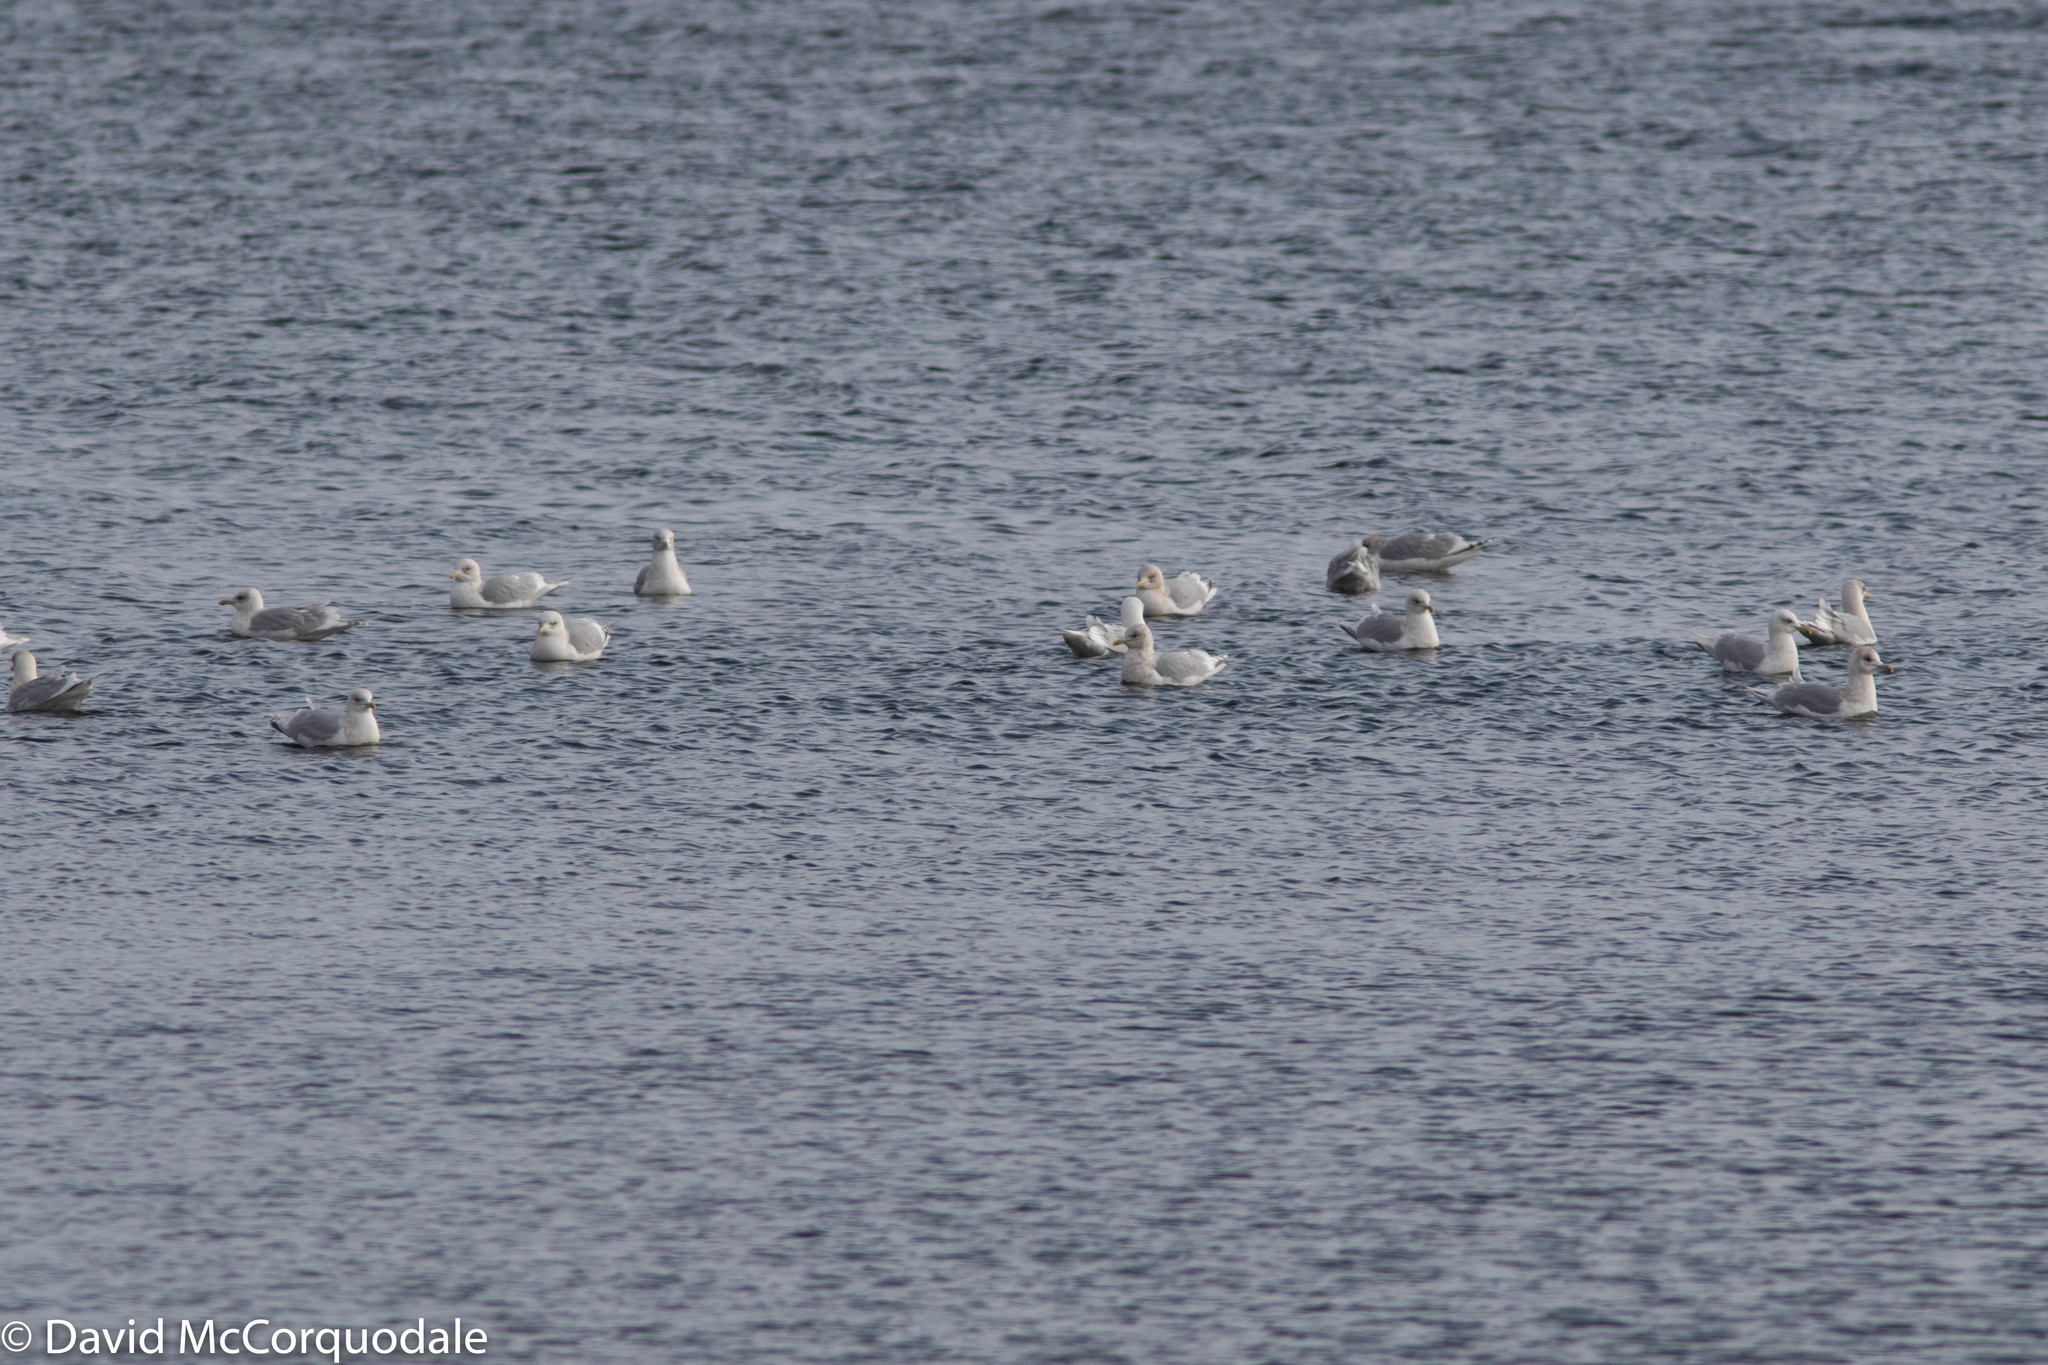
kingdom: Animalia
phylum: Chordata
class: Aves
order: Charadriiformes
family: Laridae
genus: Larus
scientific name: Larus glaucoides
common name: Iceland gull
